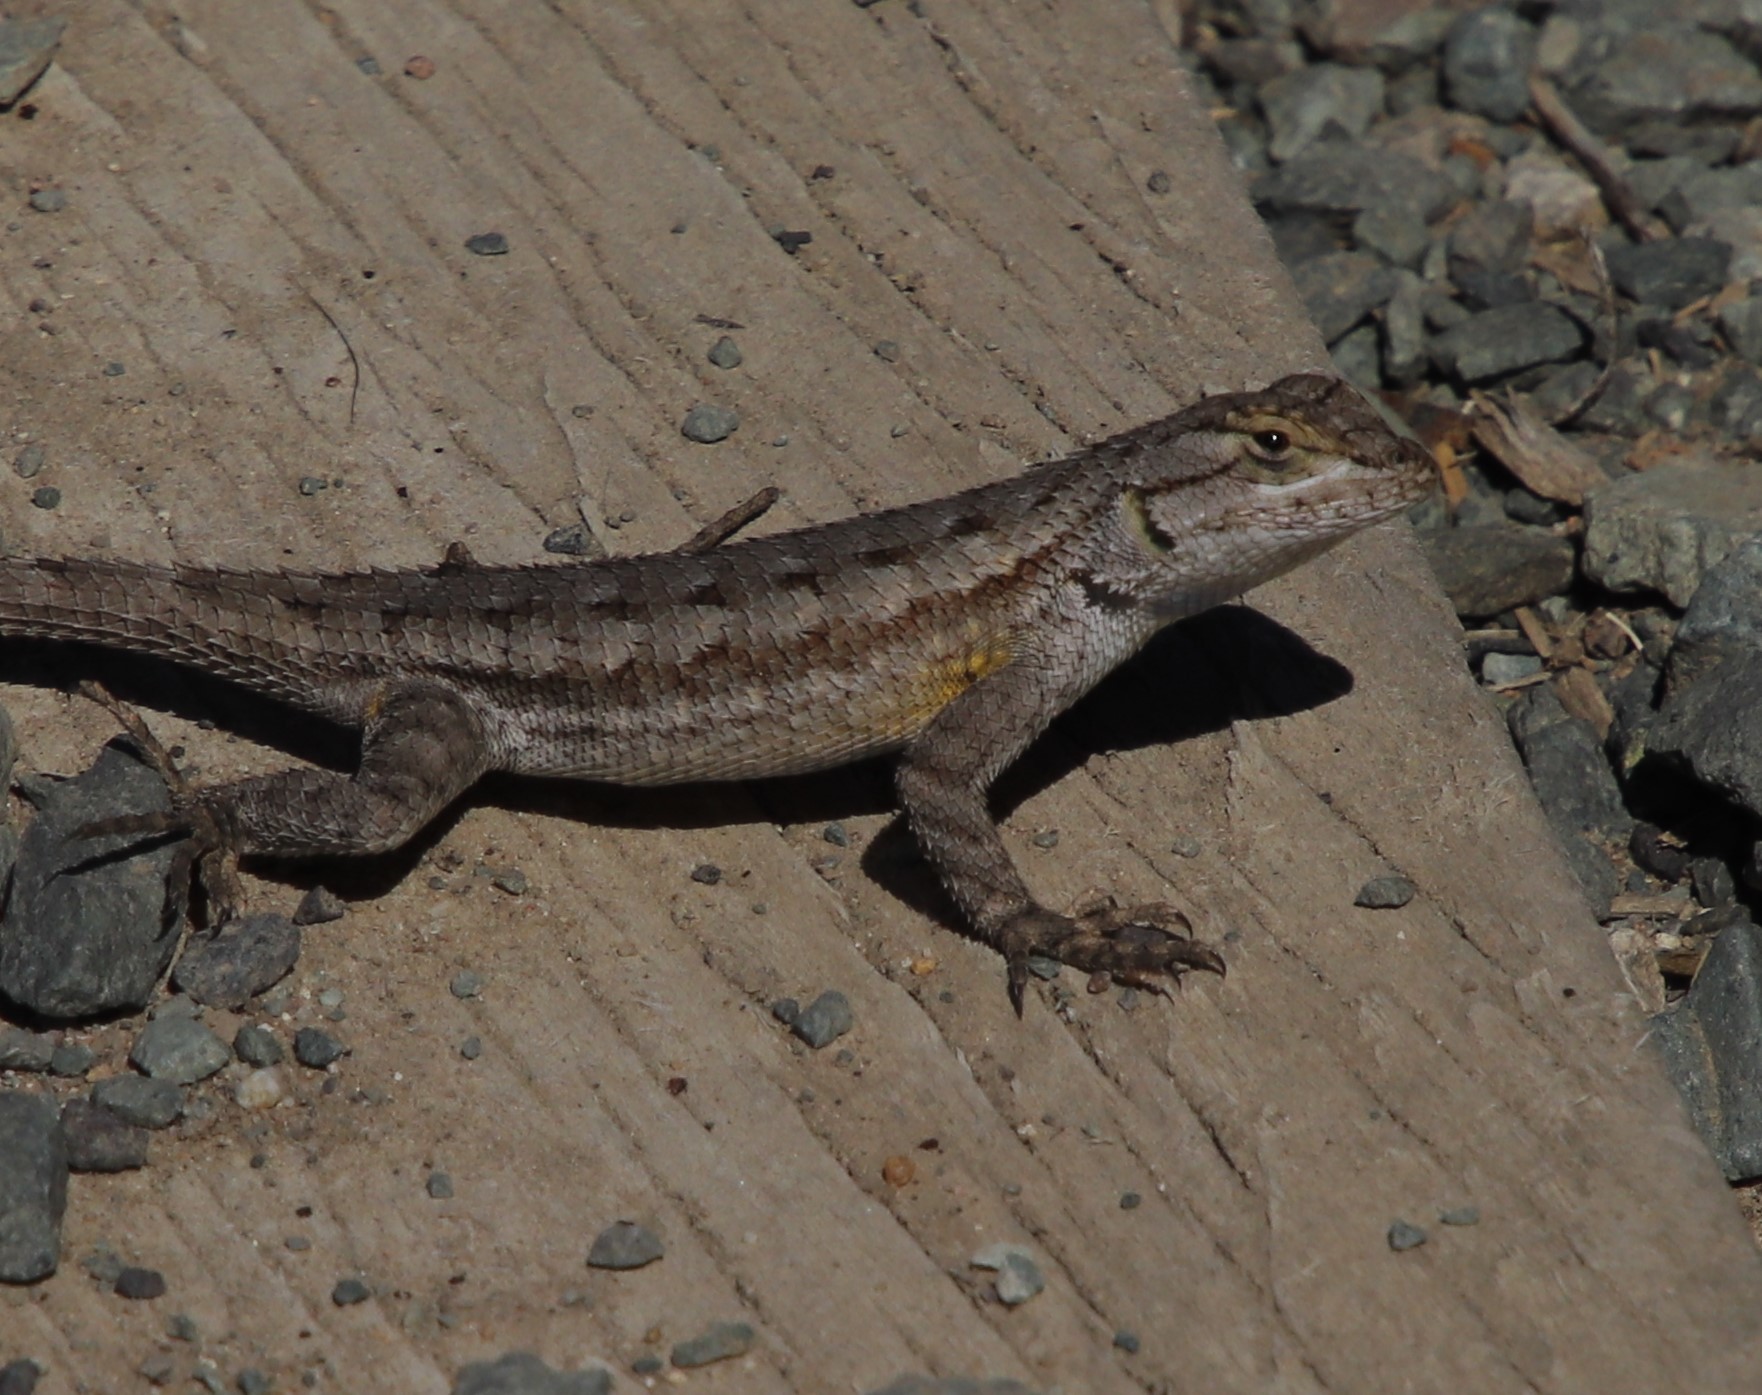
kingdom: Animalia
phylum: Chordata
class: Squamata
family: Phrynosomatidae
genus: Sceloporus
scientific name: Sceloporus occidentalis
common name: Western fence lizard
